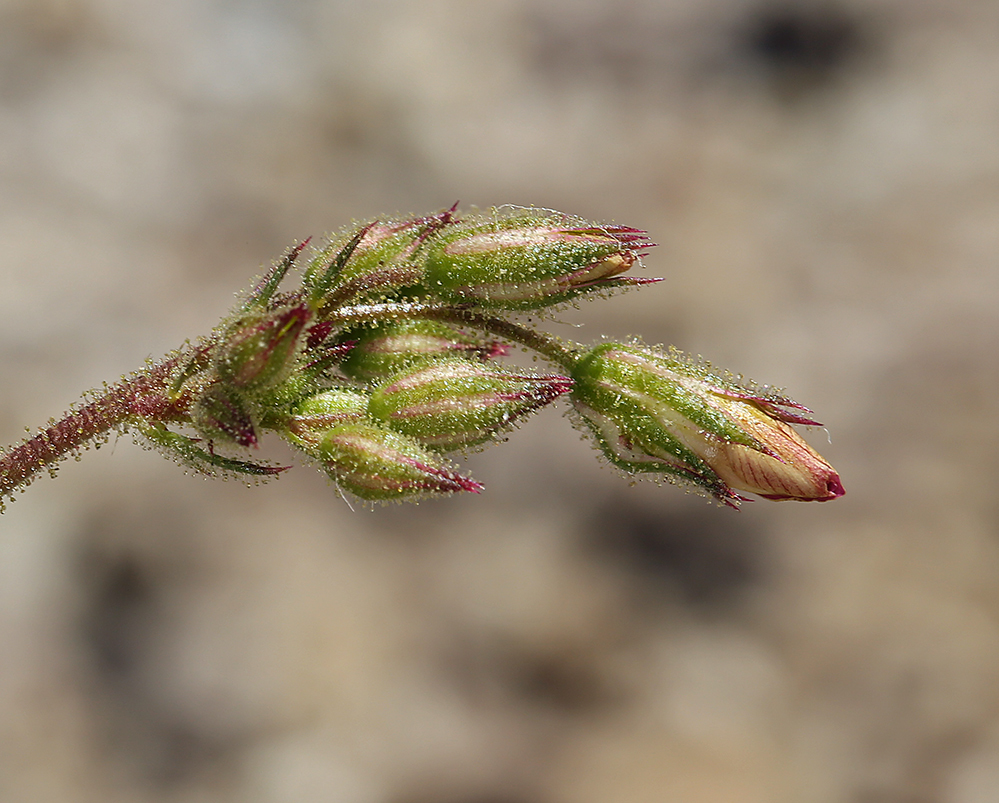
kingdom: Plantae
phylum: Tracheophyta
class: Magnoliopsida
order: Ericales
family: Polemoniaceae
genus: Aliciella
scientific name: Aliciella latifolia
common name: Broad-leaf gilia
